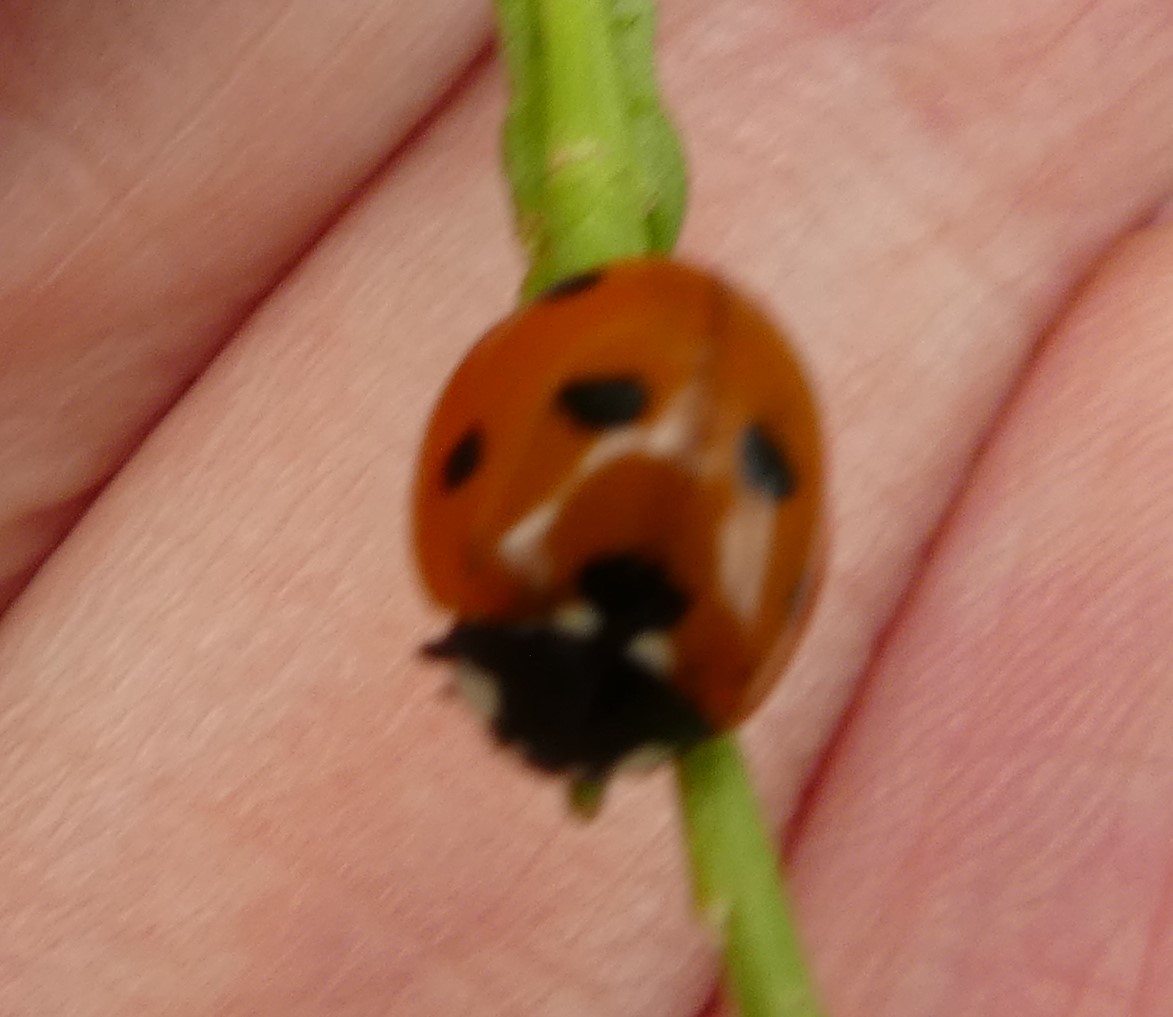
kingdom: Animalia
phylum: Arthropoda
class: Insecta
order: Coleoptera
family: Coccinellidae
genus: Coccinella
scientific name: Coccinella septempunctata
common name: Sevenspotted lady beetle
